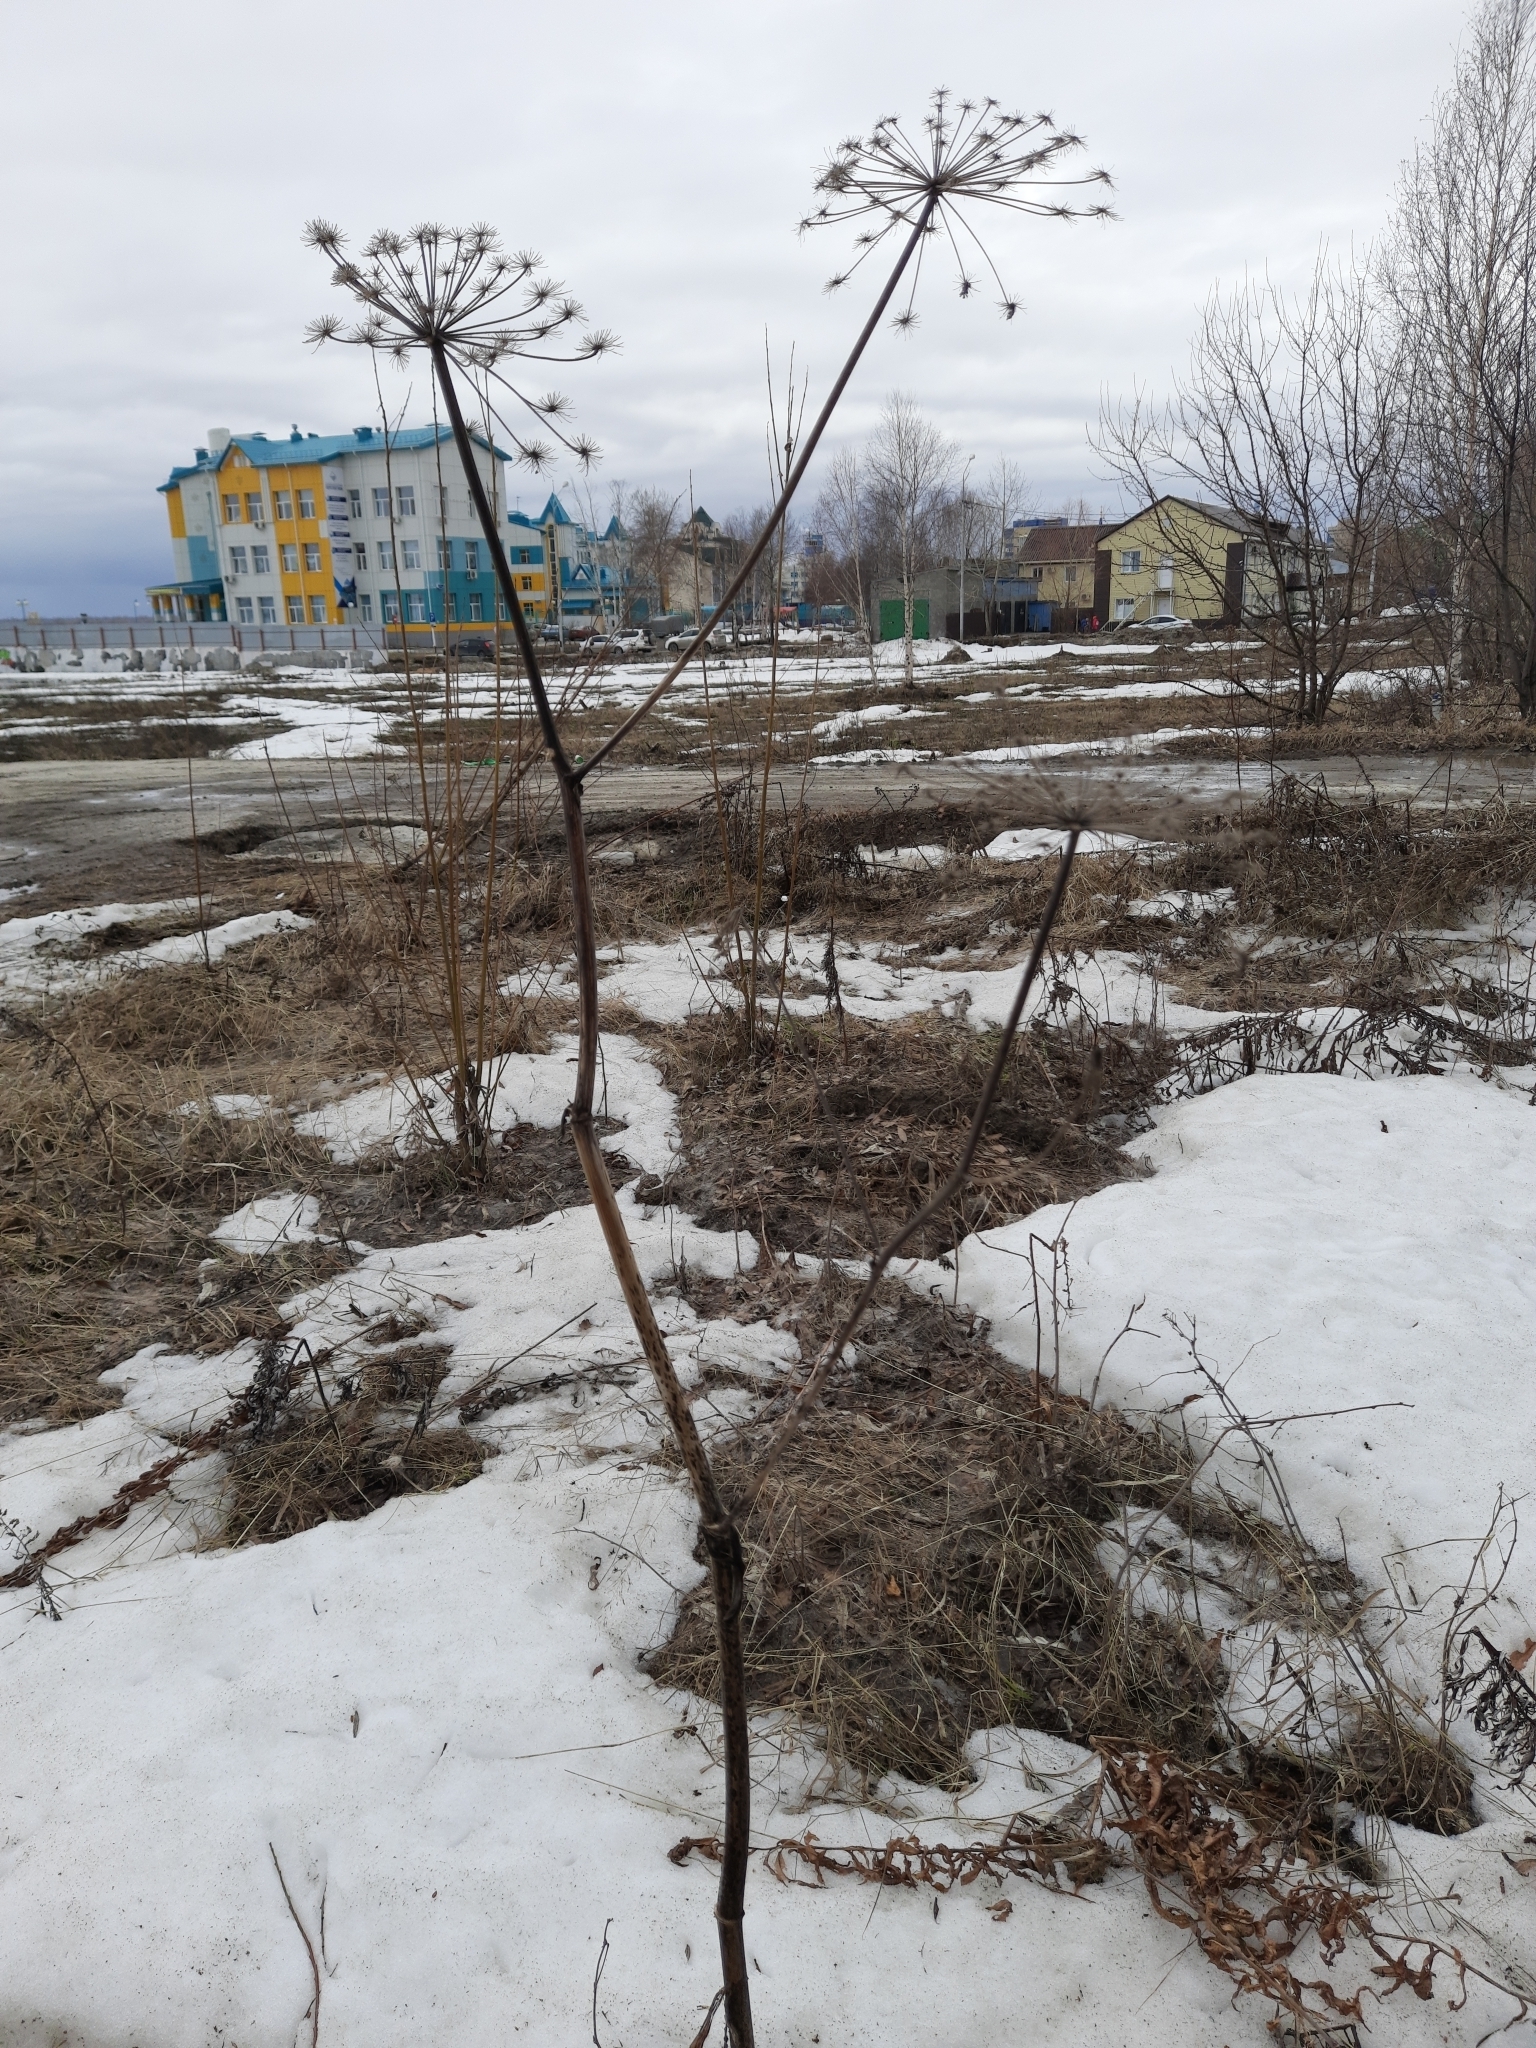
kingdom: Plantae
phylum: Tracheophyta
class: Magnoliopsida
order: Apiales
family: Apiaceae
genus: Angelica
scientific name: Angelica decurrens
